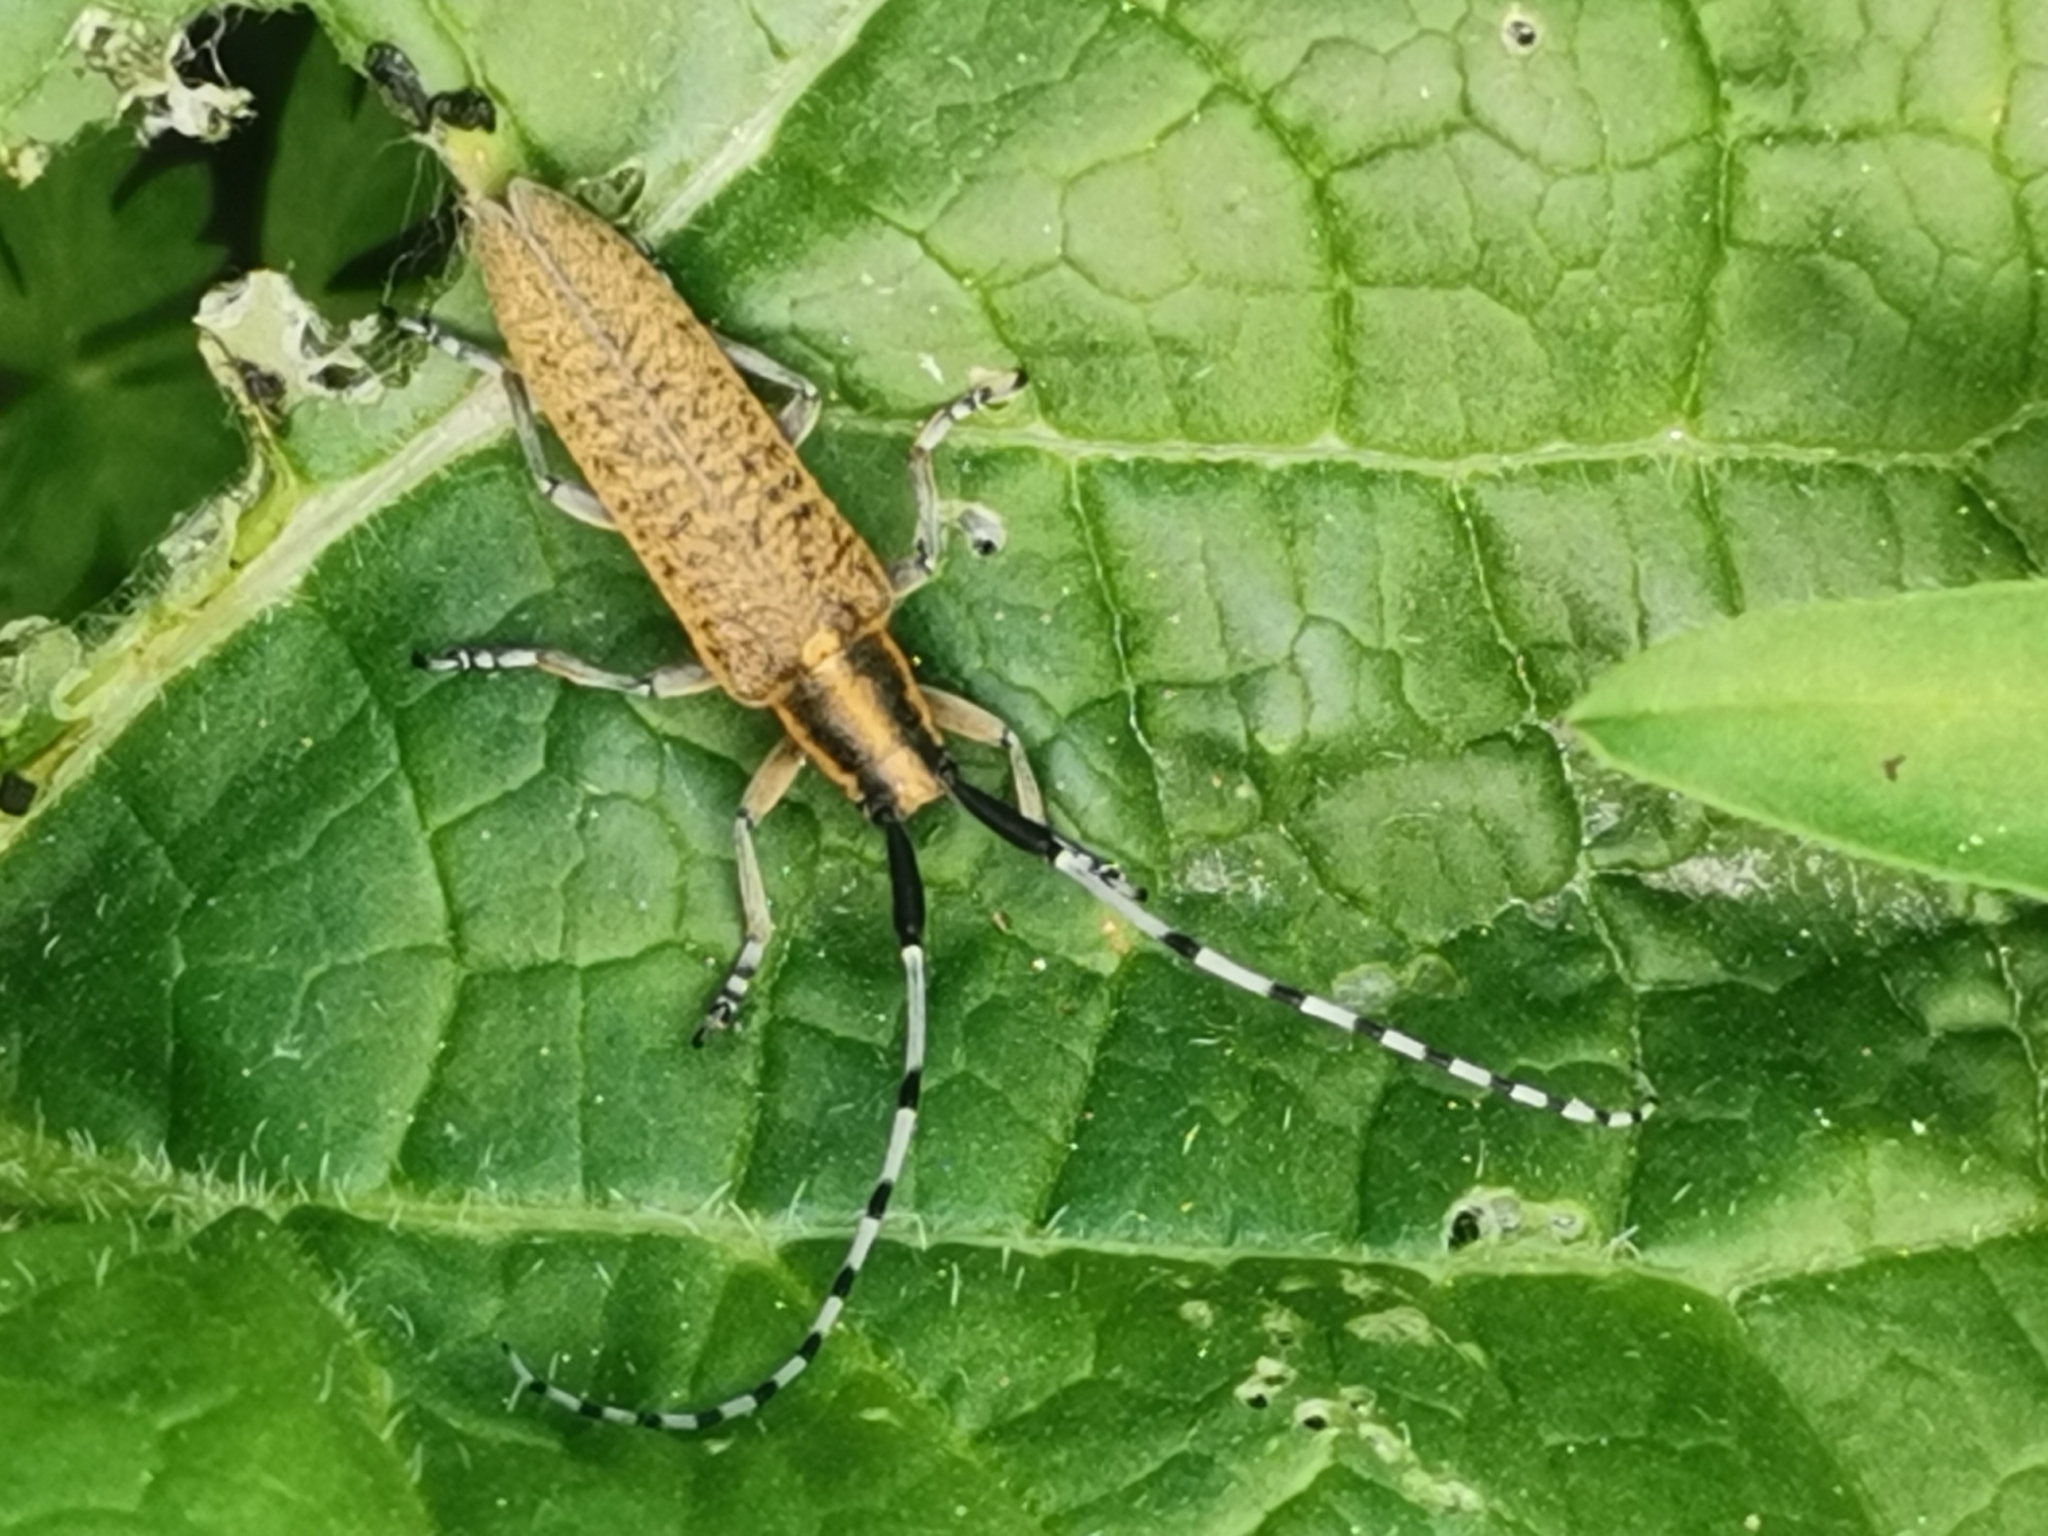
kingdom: Animalia
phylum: Arthropoda
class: Insecta
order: Coleoptera
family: Cerambycidae
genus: Agapanthia
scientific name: Agapanthia villosoviridescens
